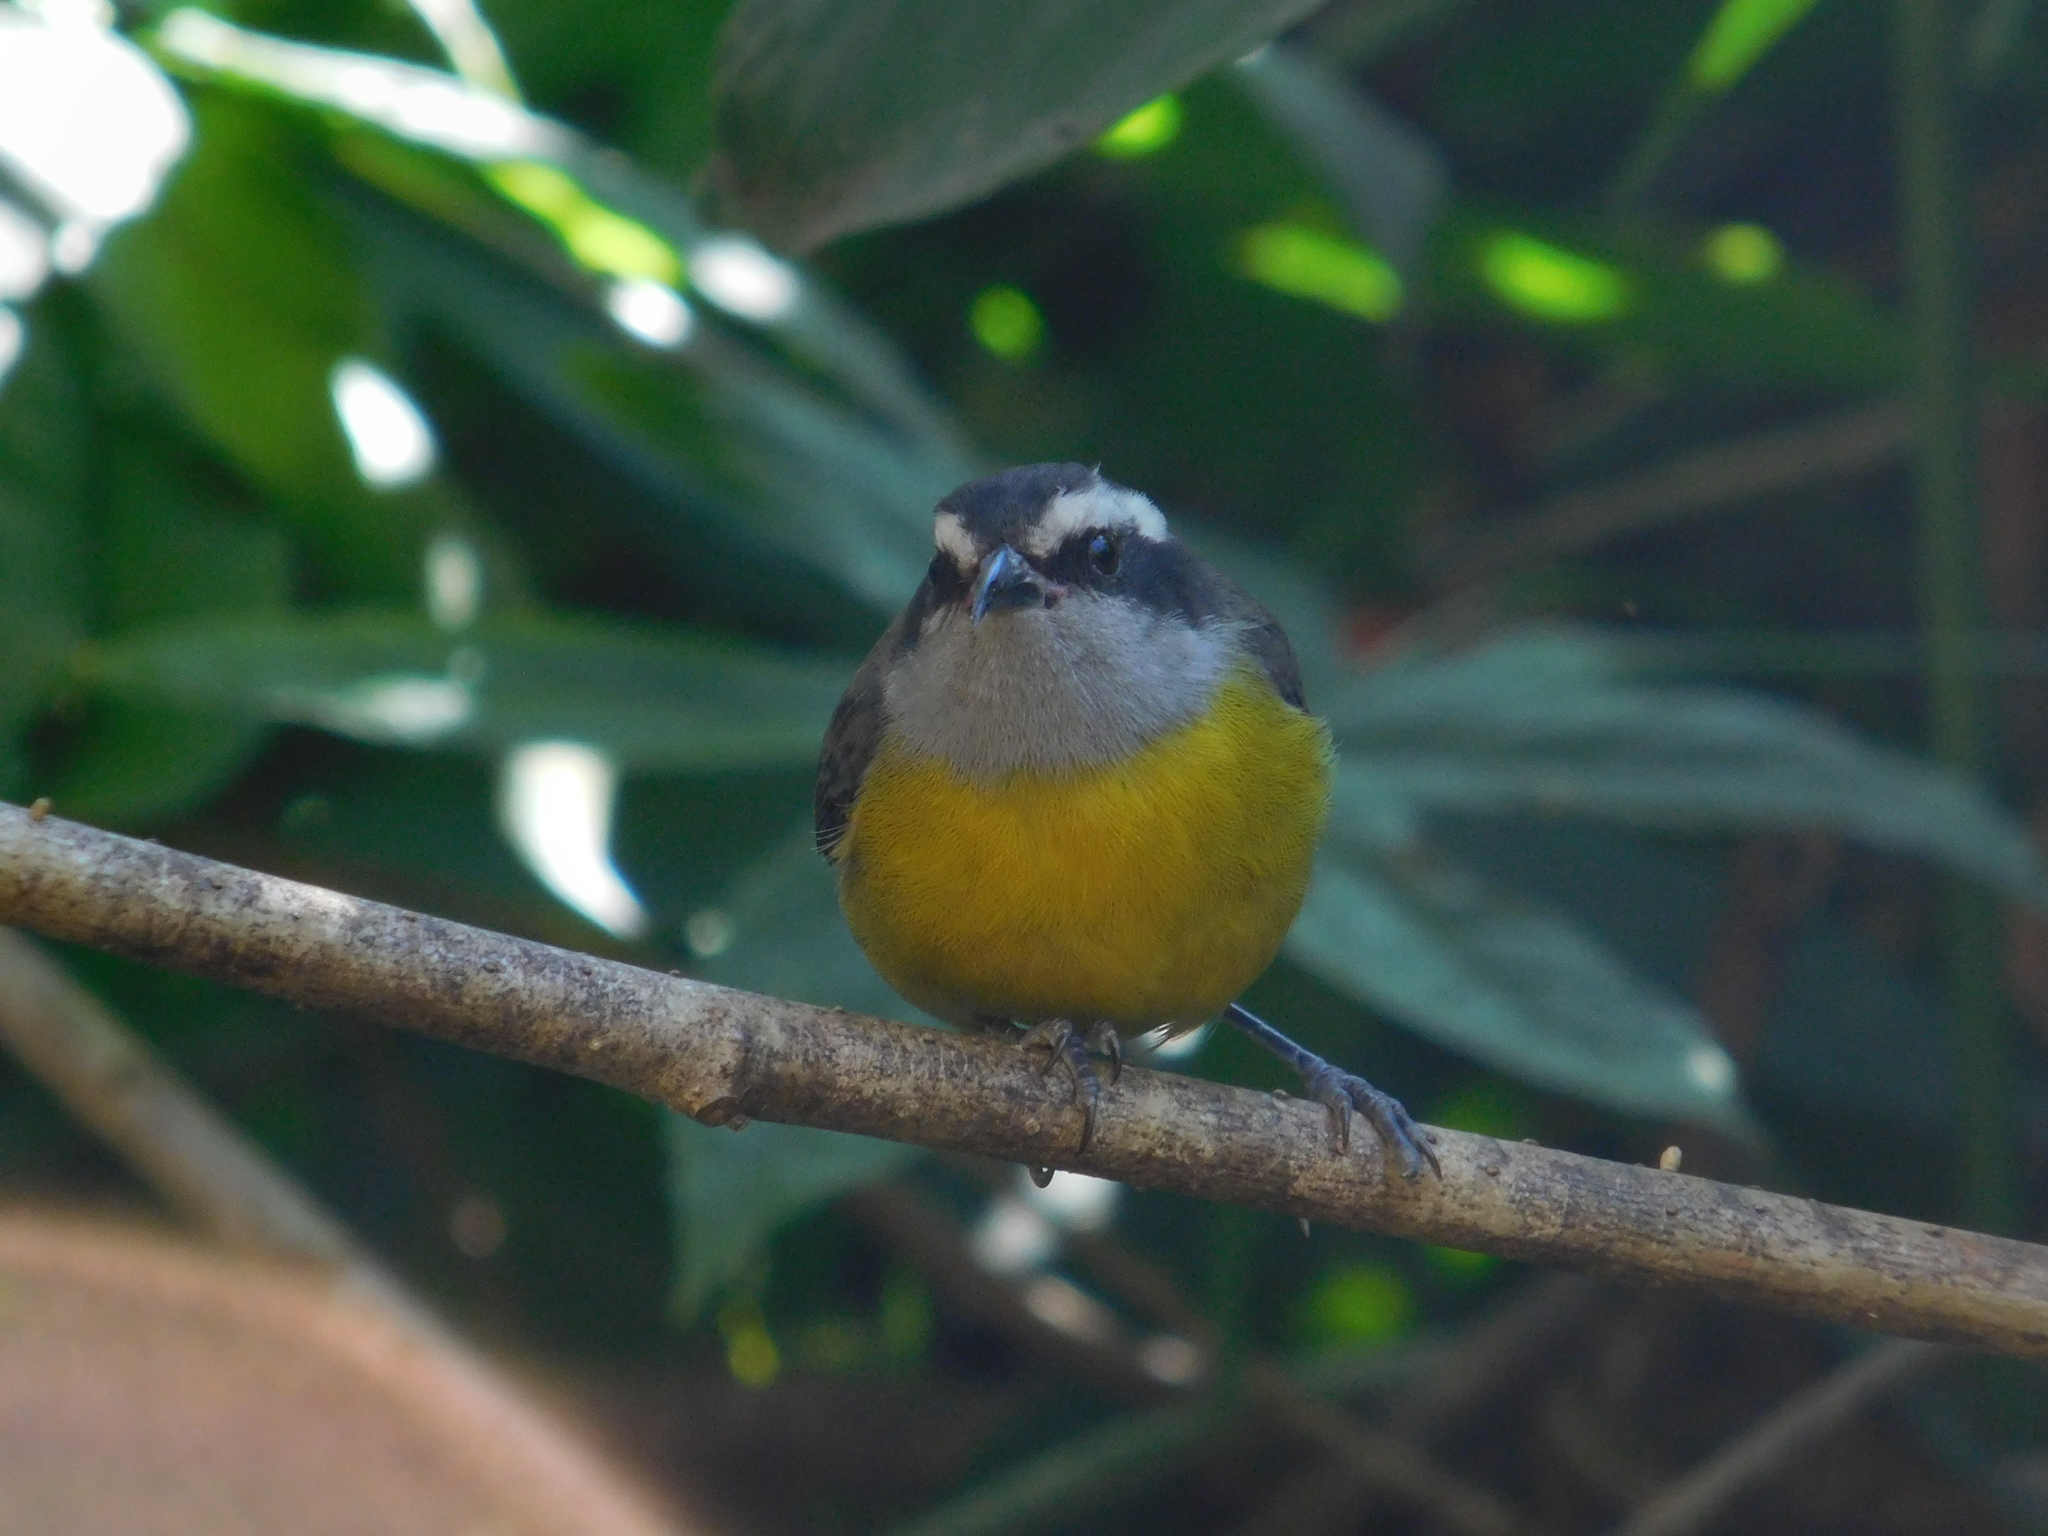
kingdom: Animalia
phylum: Chordata
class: Aves
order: Passeriformes
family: Thraupidae
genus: Coereba
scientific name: Coereba flaveola
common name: Bananaquit
